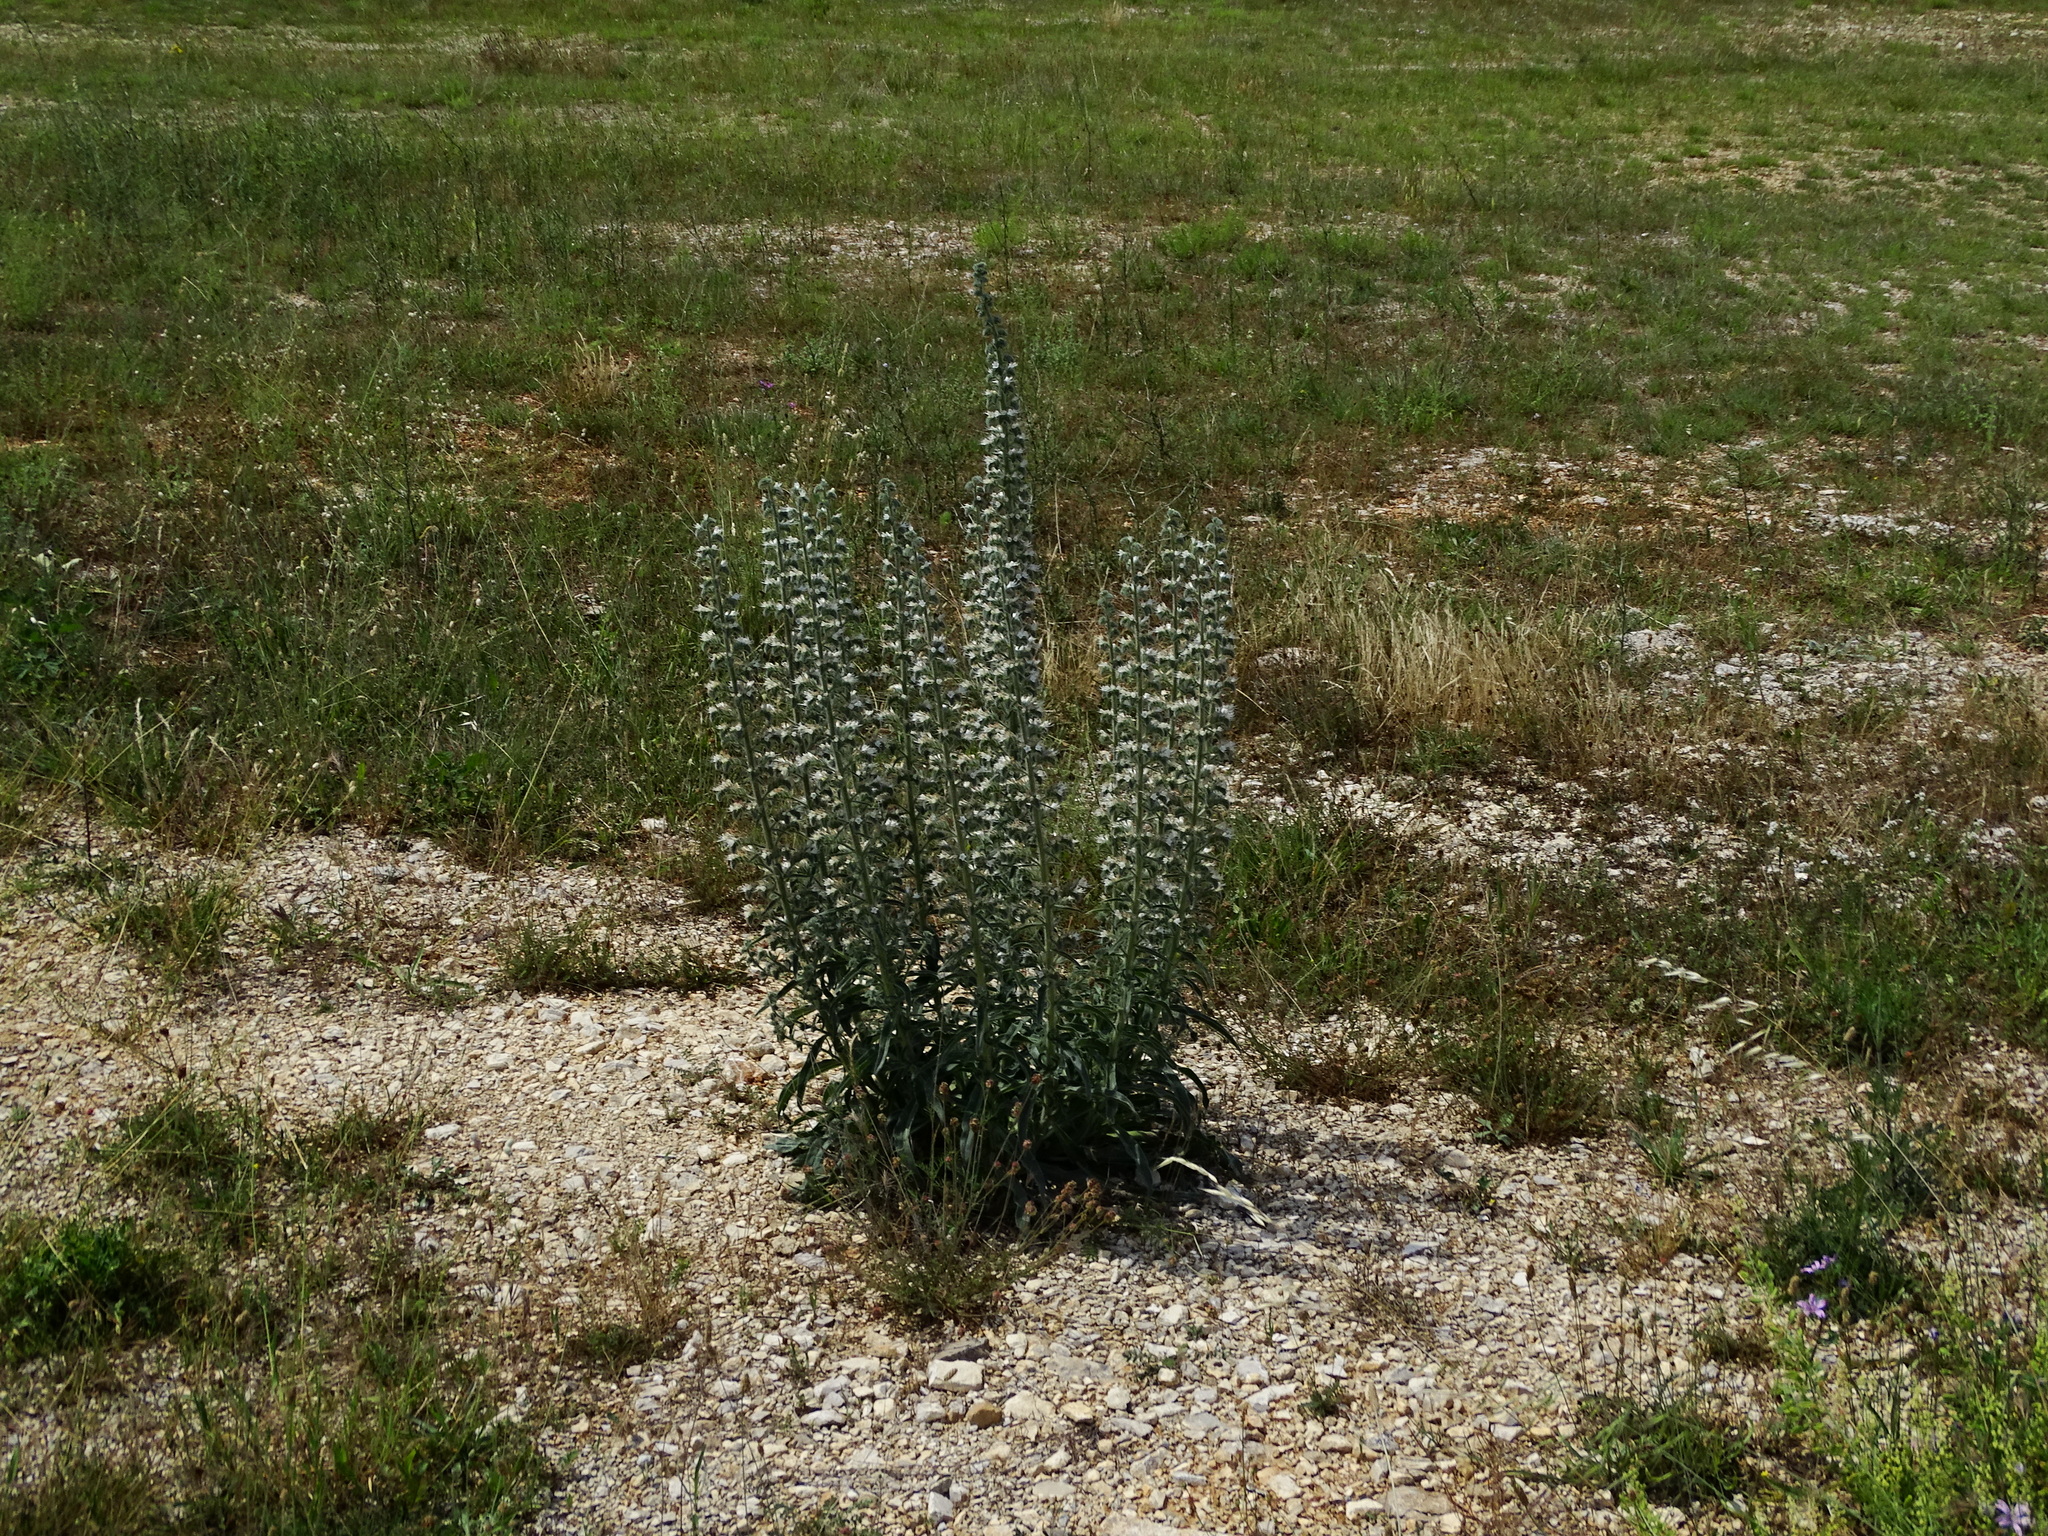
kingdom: Plantae
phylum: Tracheophyta
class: Magnoliopsida
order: Boraginales
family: Boraginaceae
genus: Echium
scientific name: Echium italicum
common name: Italian viper's bugloss
